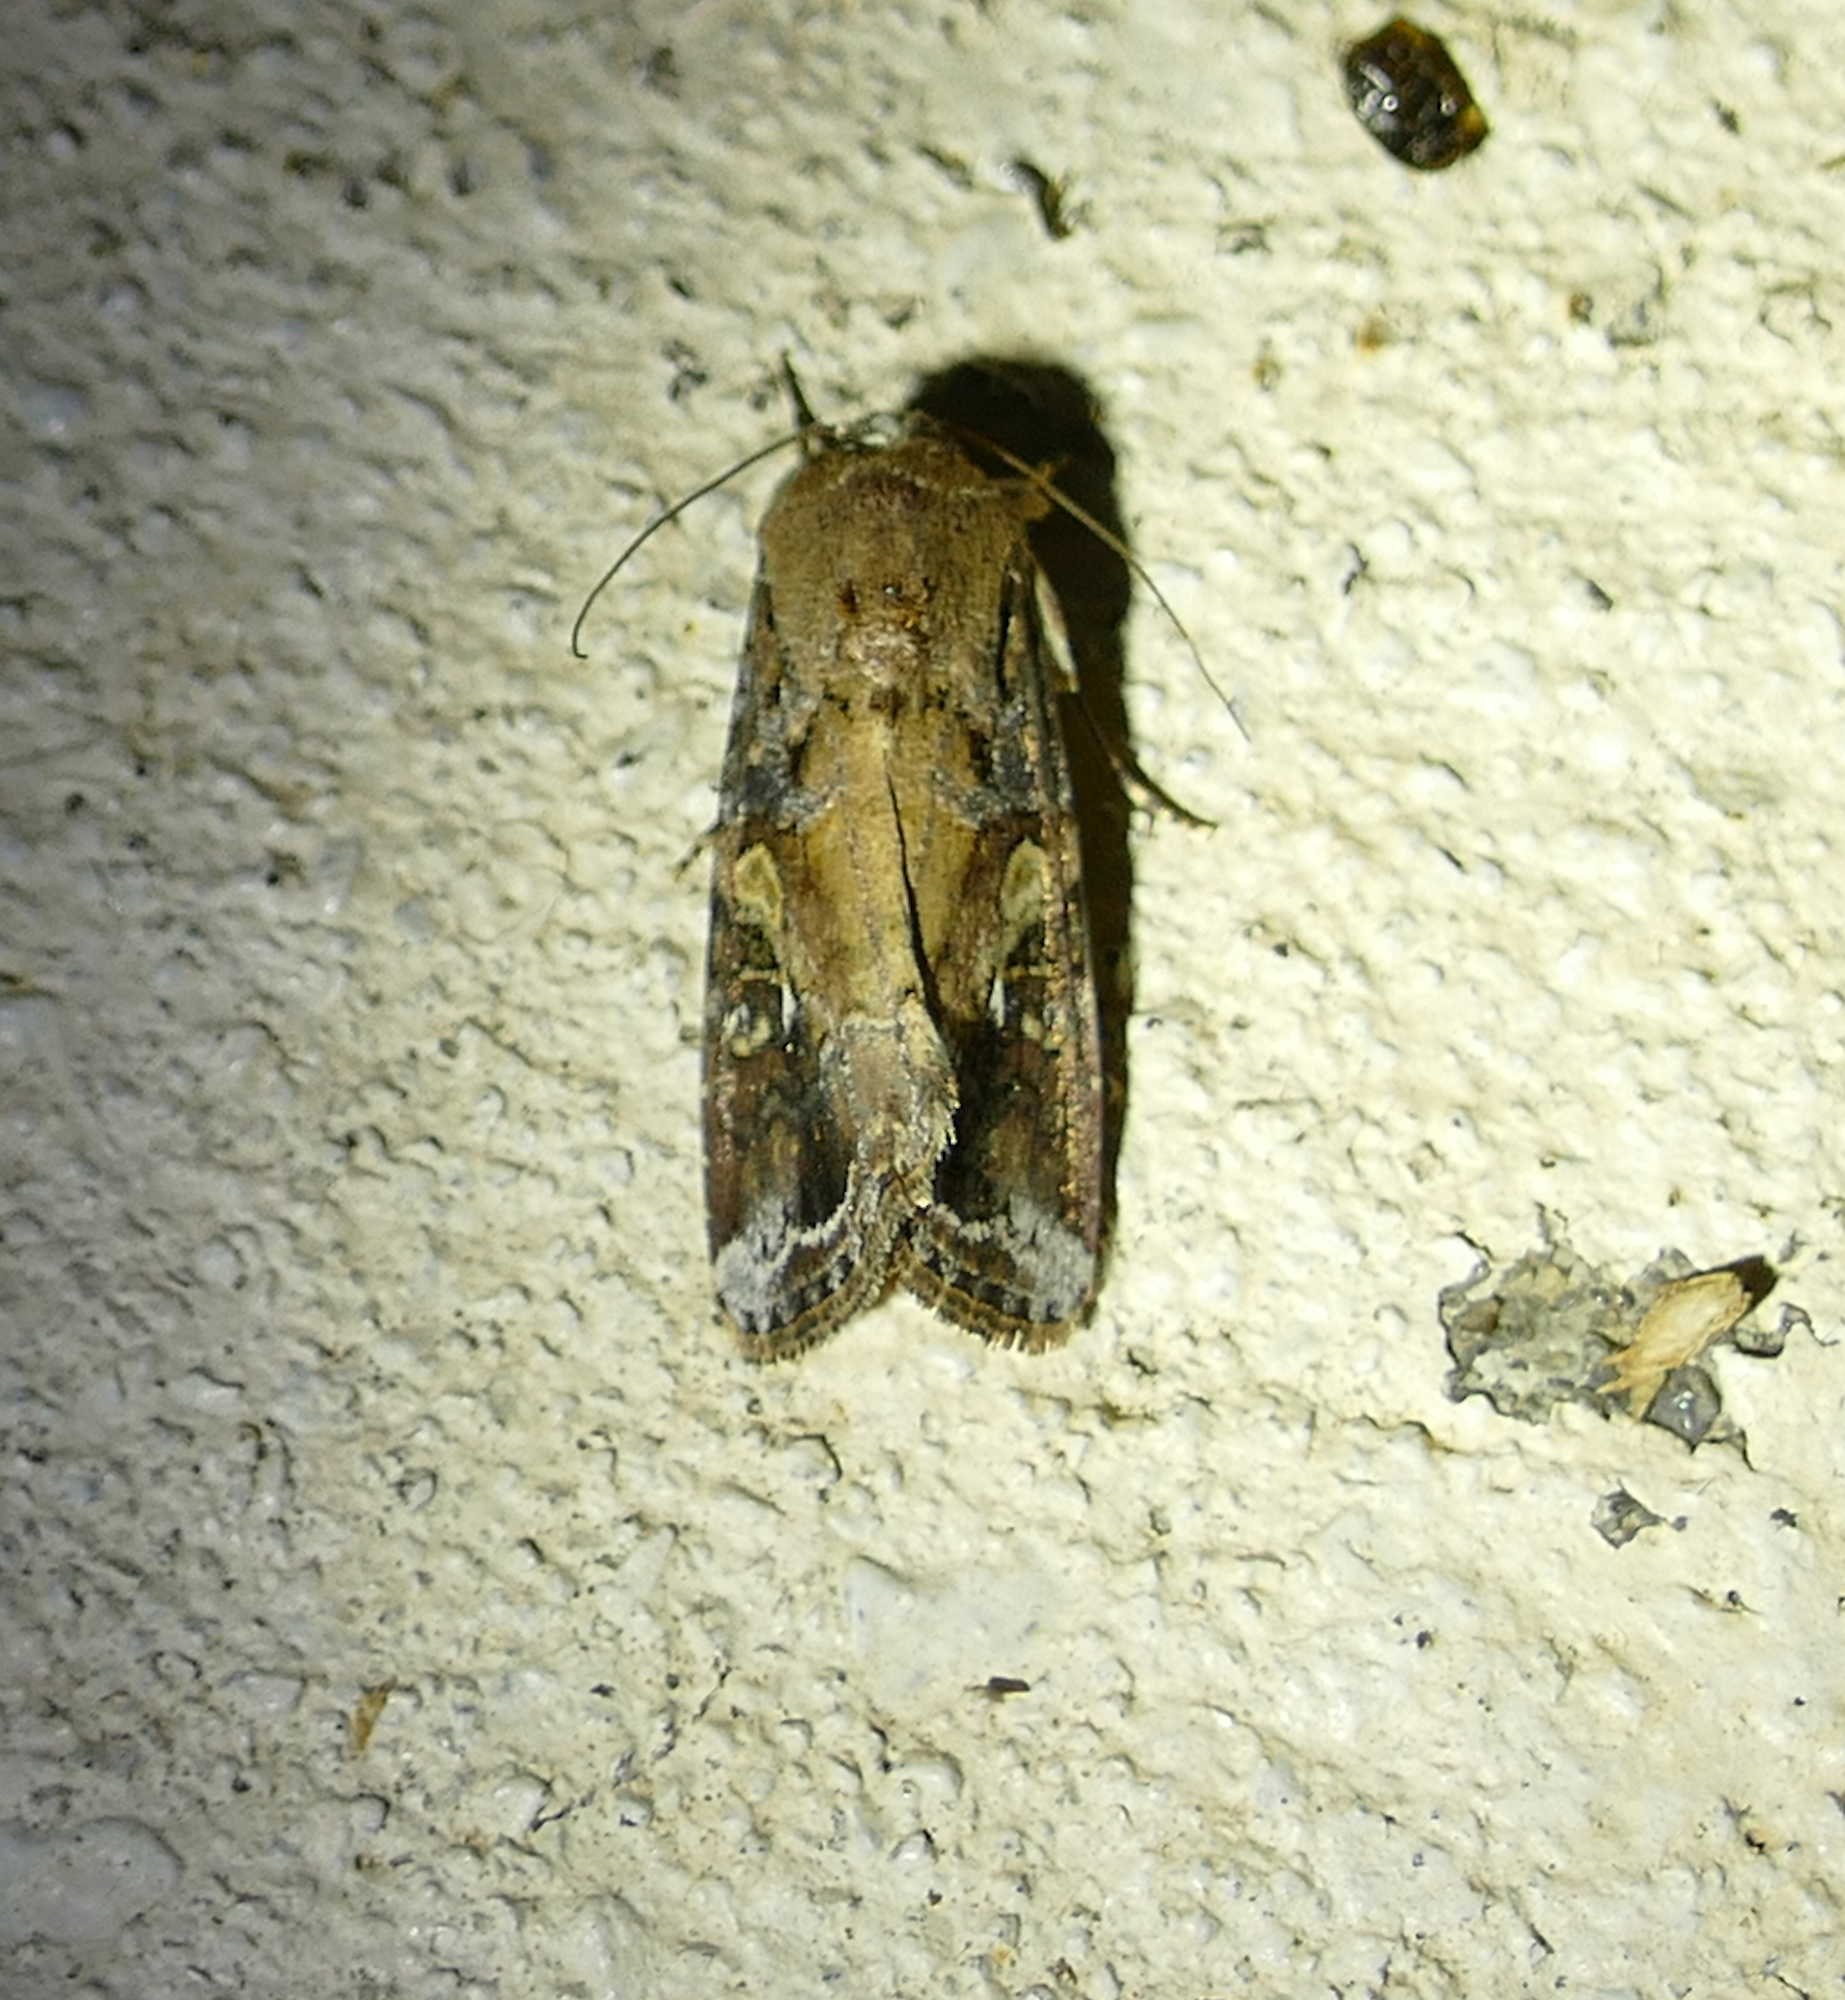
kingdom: Animalia
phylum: Arthropoda
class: Insecta
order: Lepidoptera
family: Noctuidae
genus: Spodoptera
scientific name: Spodoptera frugiperda
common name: Fall armyworm
